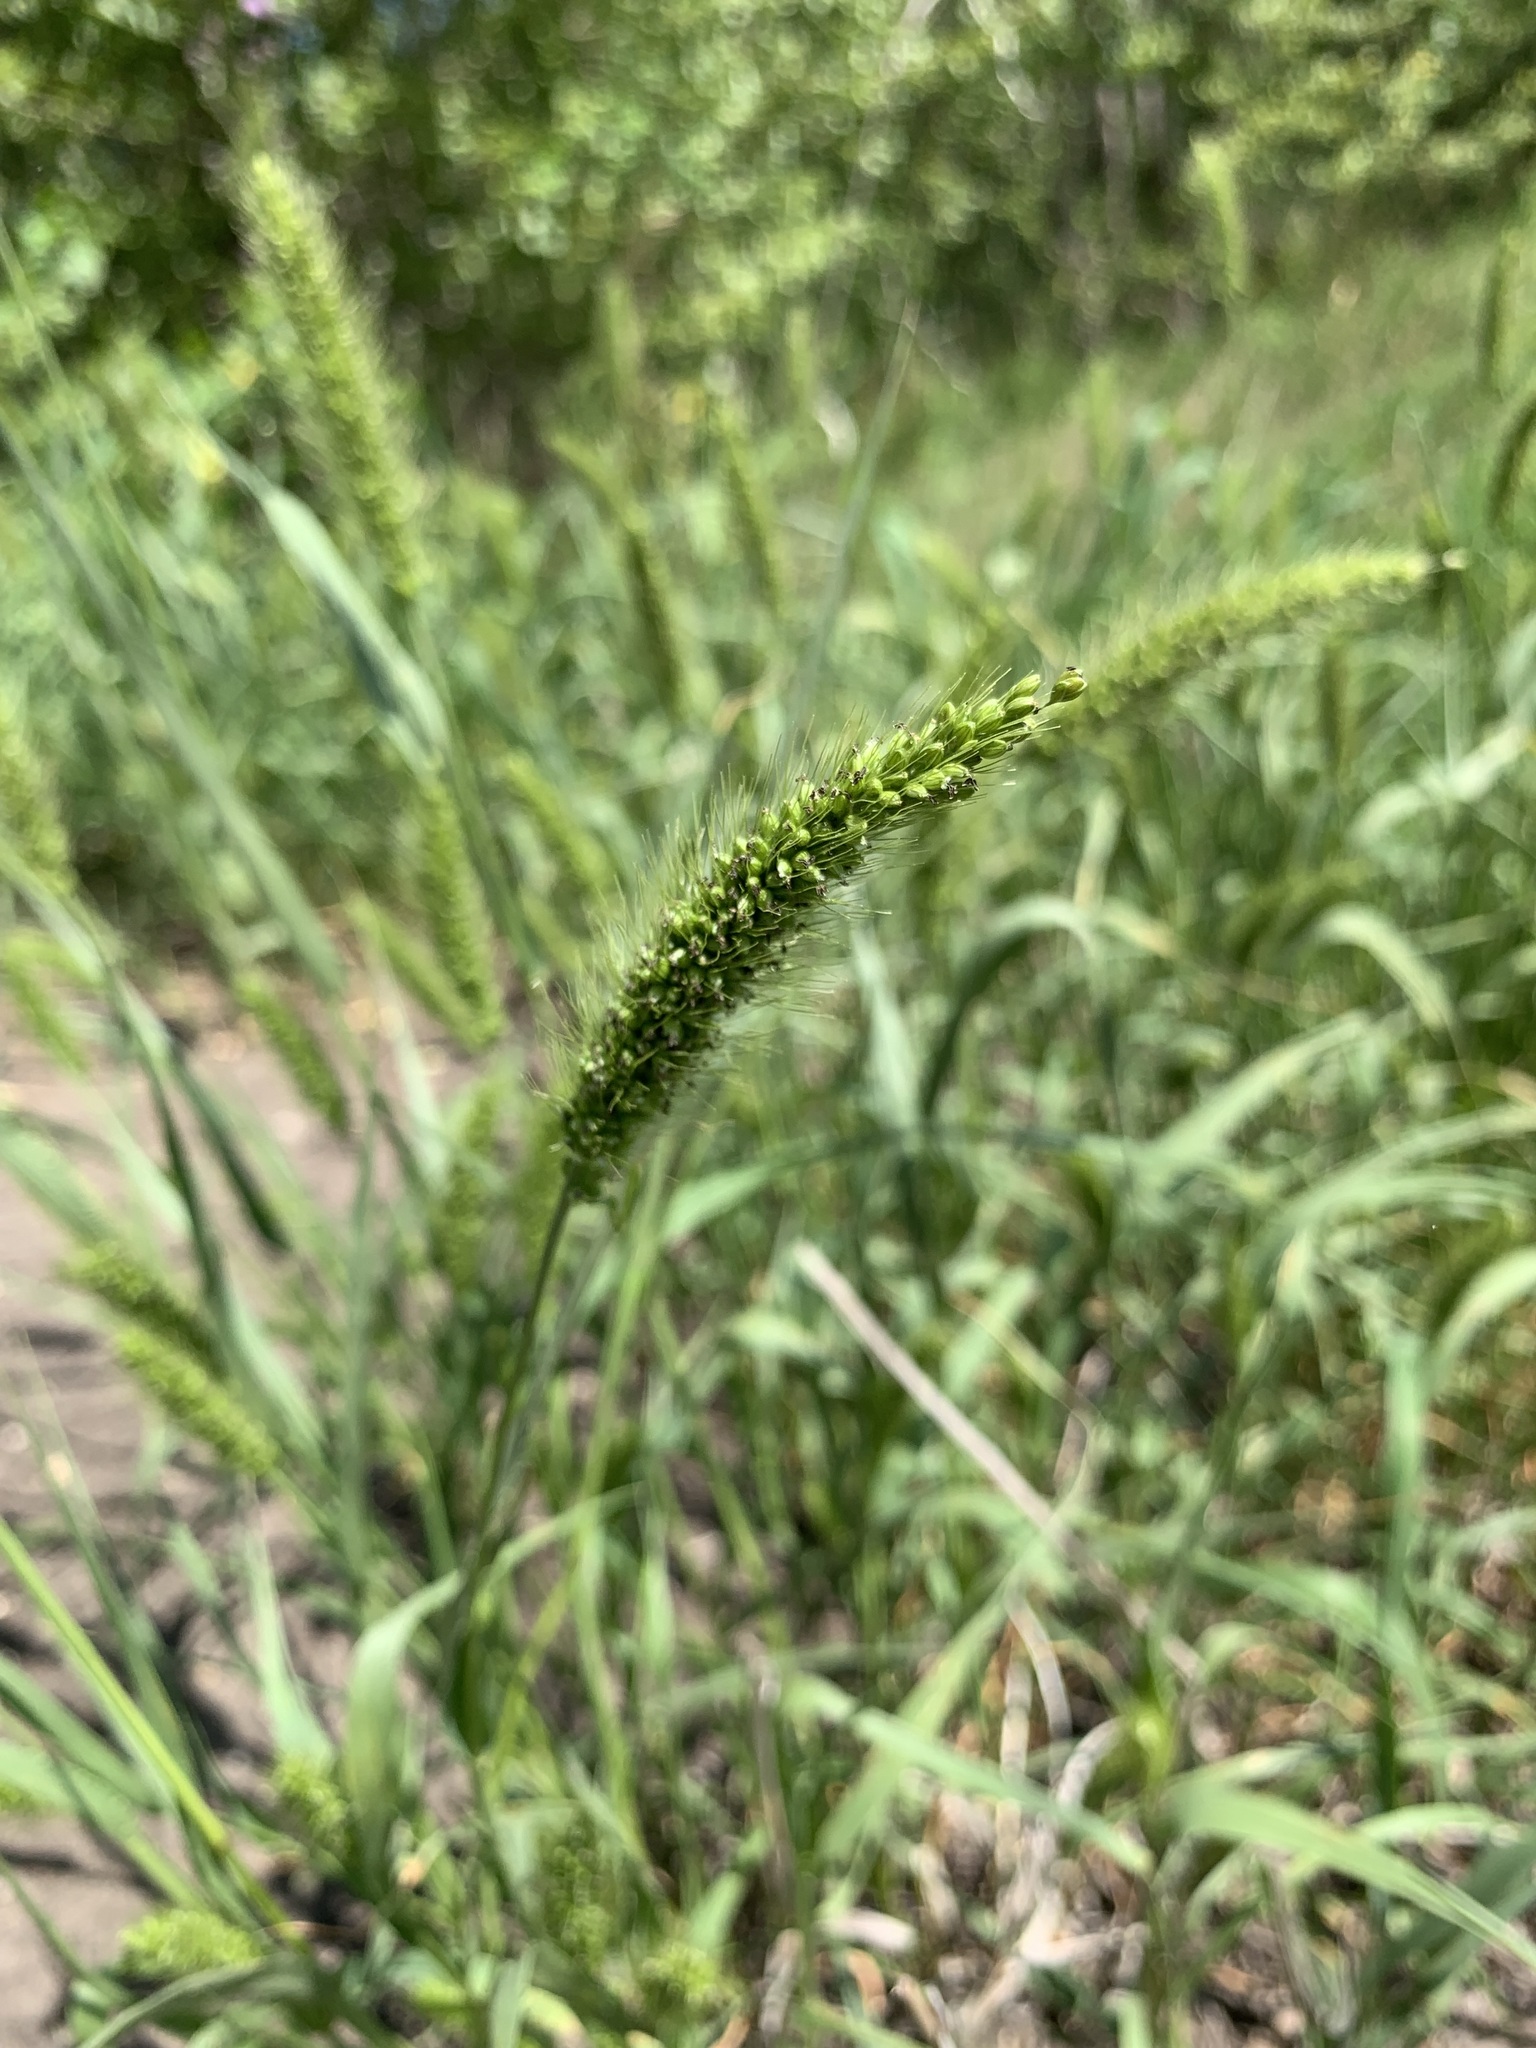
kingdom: Plantae
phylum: Tracheophyta
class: Liliopsida
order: Poales
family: Poaceae
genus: Setaria
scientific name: Setaria viridis
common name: Green bristlegrass
